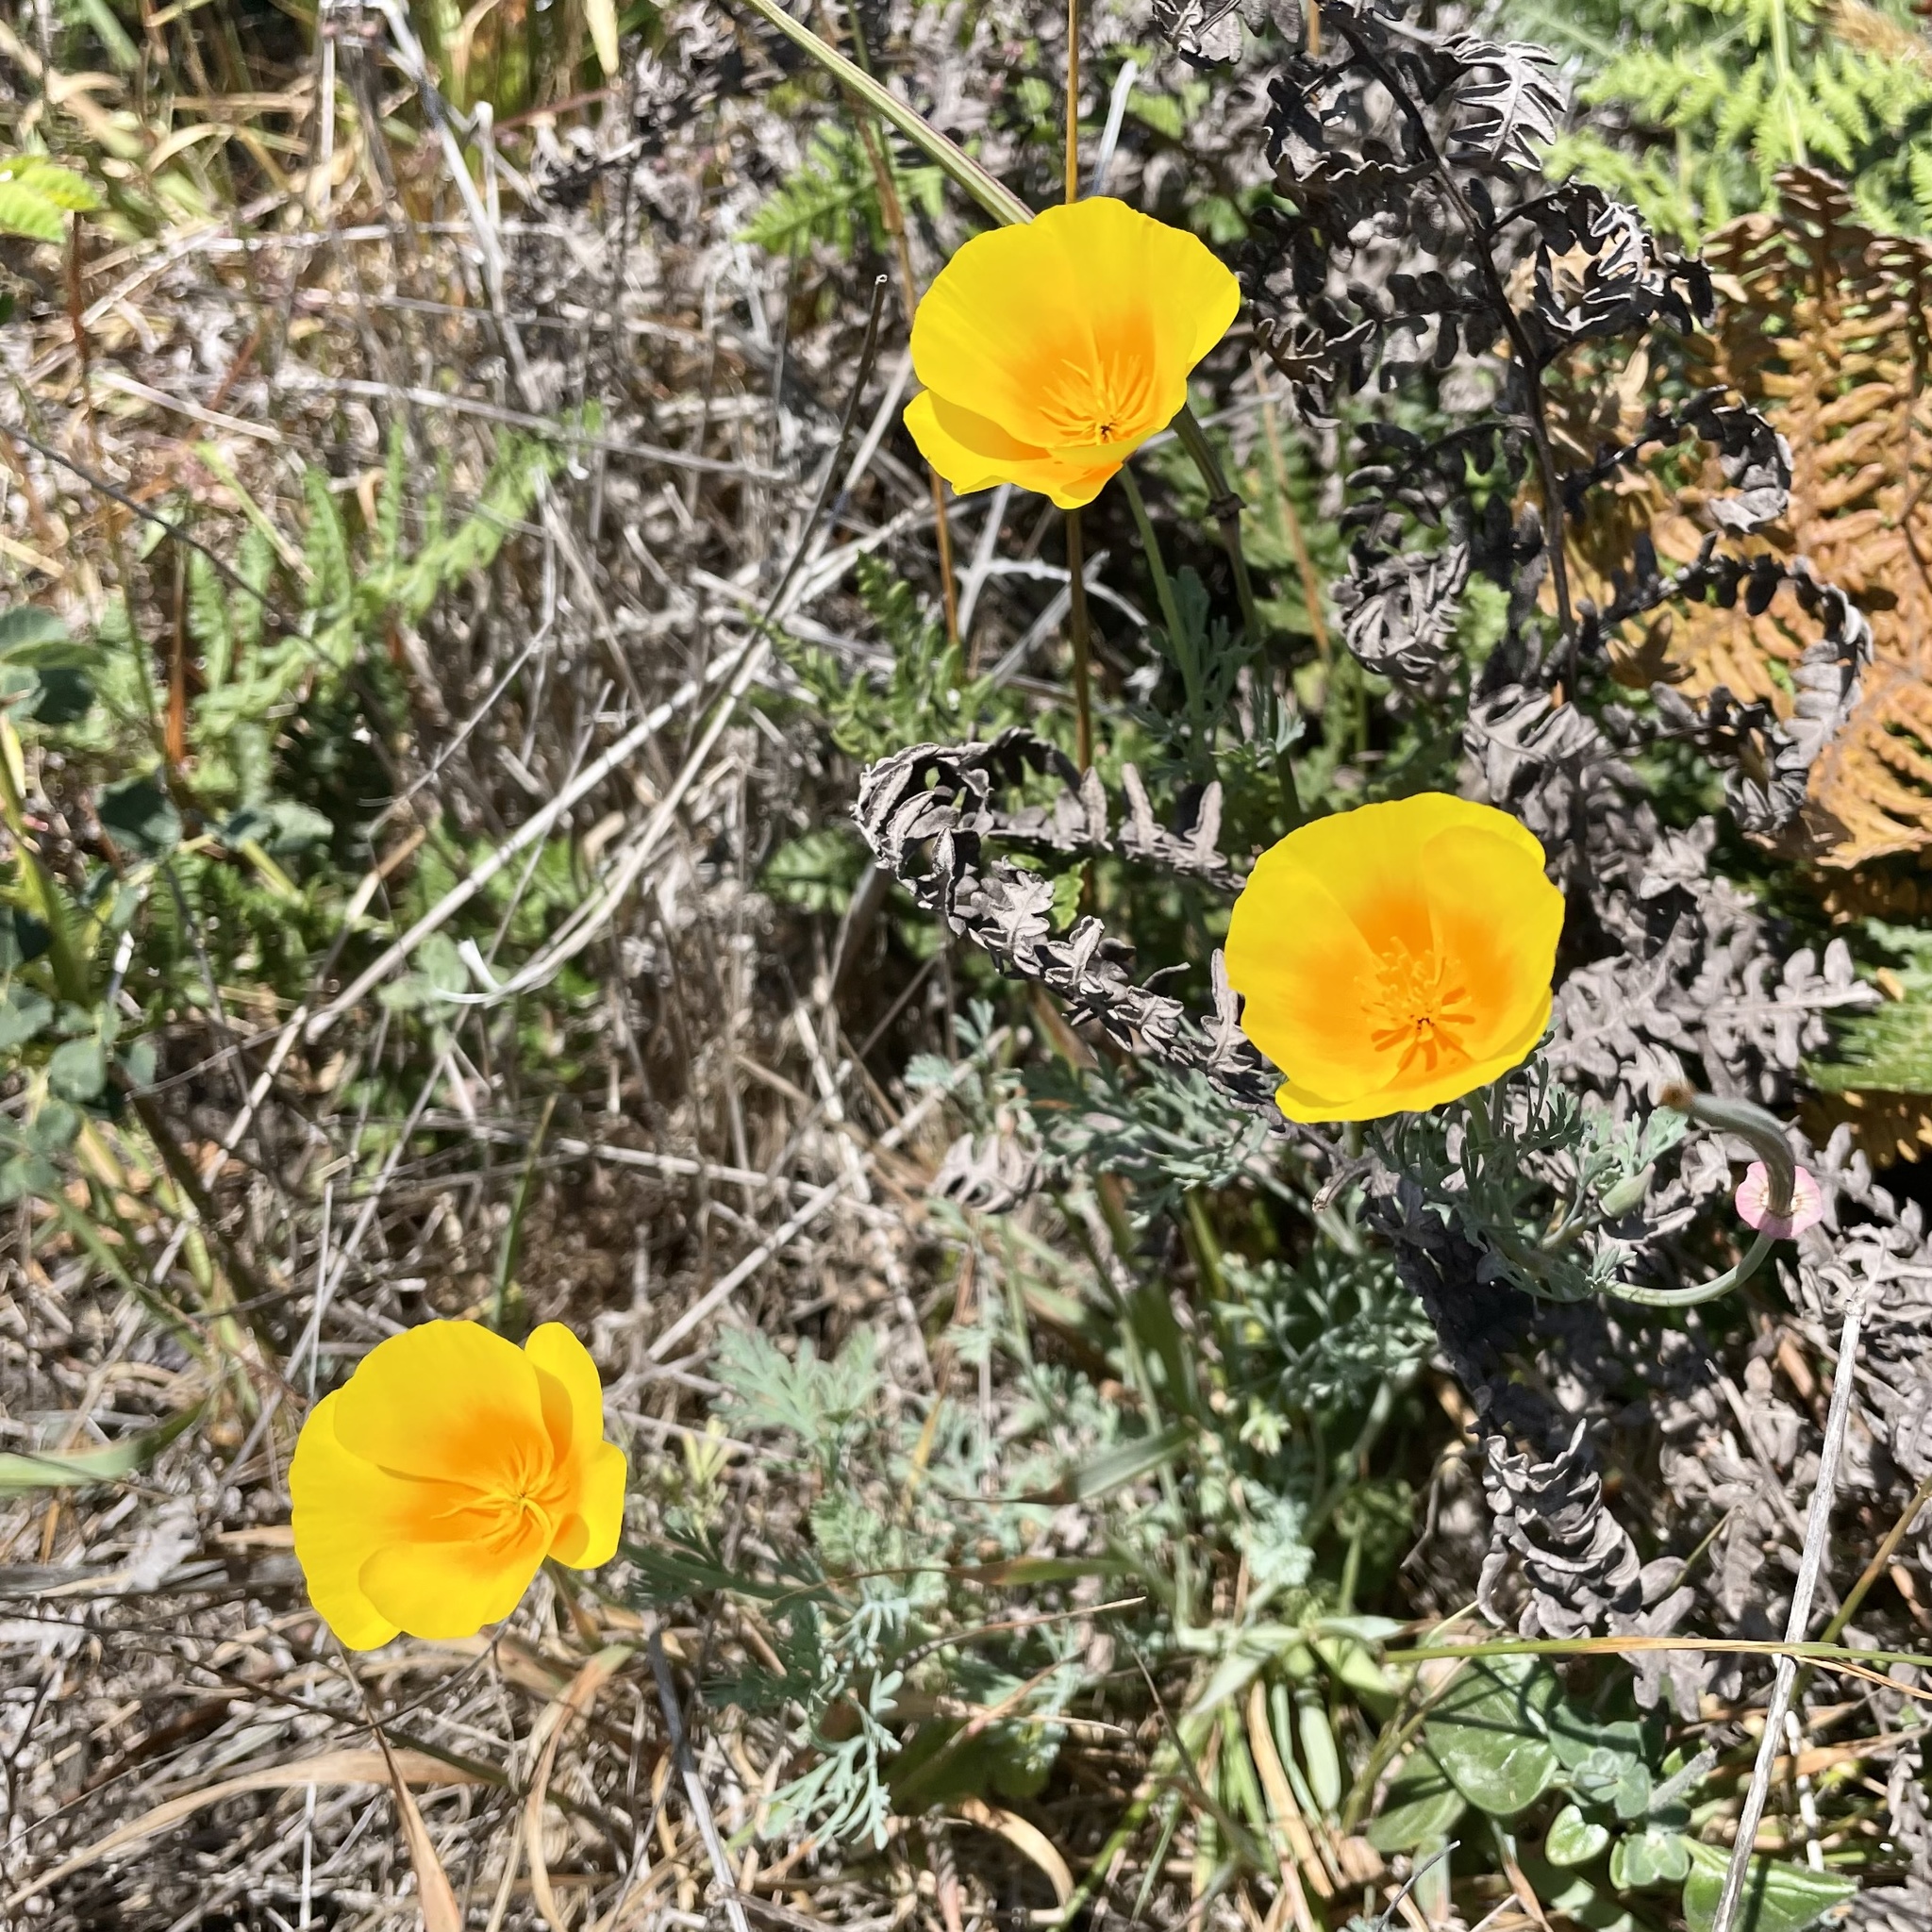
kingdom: Plantae
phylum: Tracheophyta
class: Magnoliopsida
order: Ranunculales
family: Papaveraceae
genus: Eschscholzia
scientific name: Eschscholzia californica
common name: California poppy
